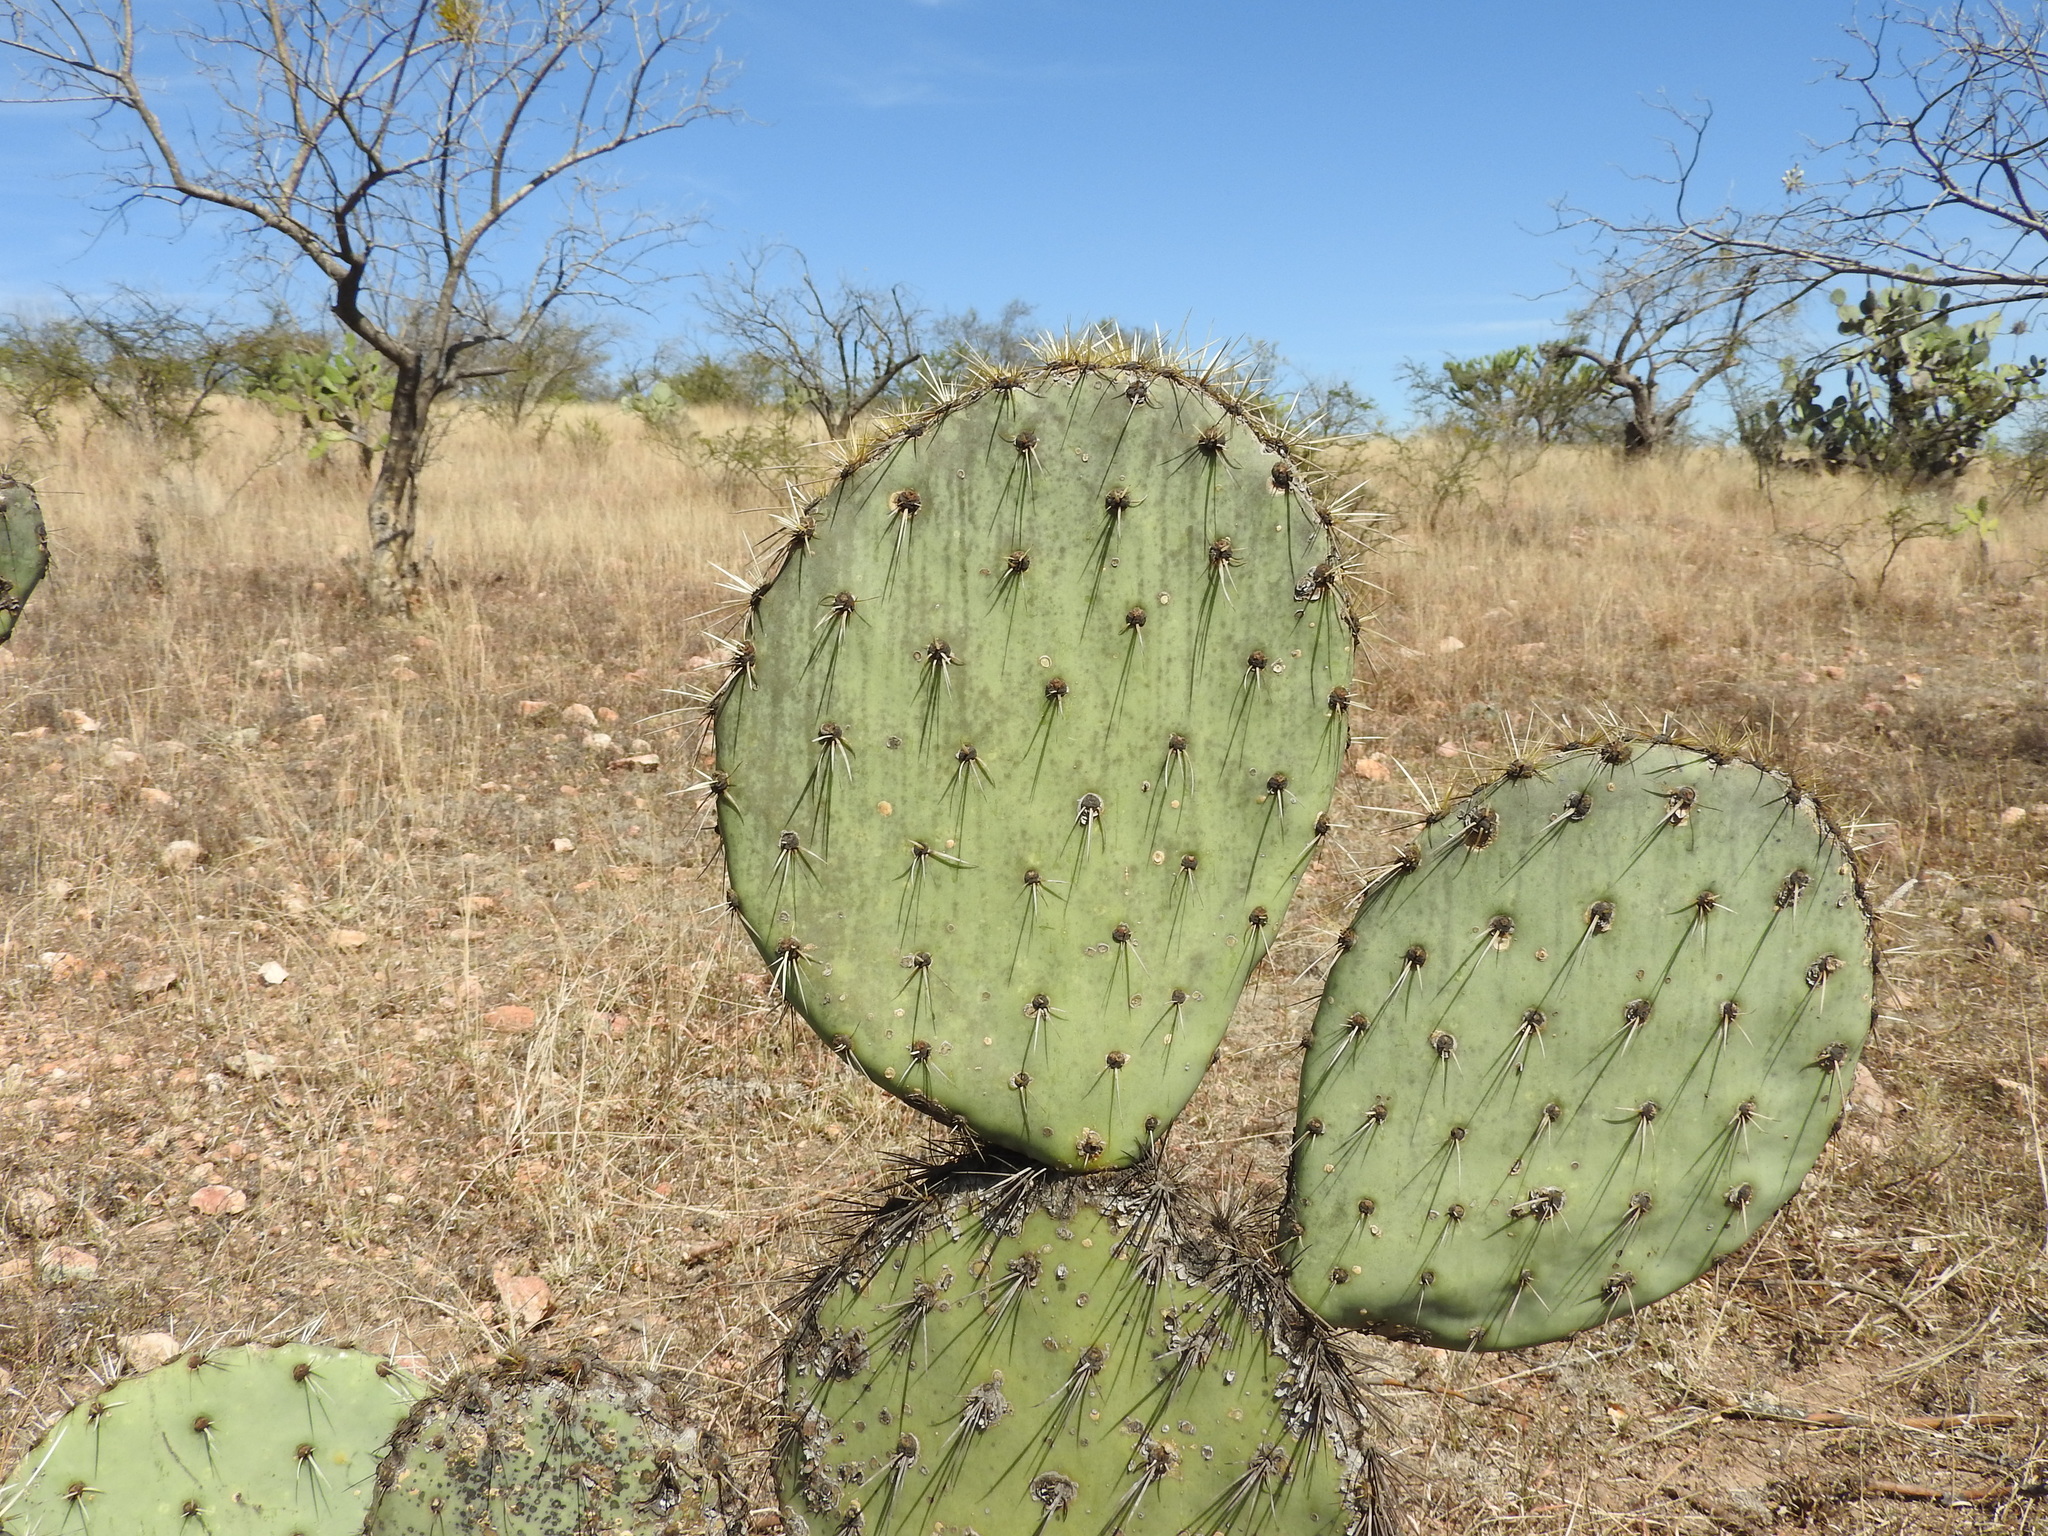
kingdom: Plantae
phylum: Tracheophyta
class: Magnoliopsida
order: Caryophyllales
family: Cactaceae
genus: Opuntia
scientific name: Opuntia engelmannii
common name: Cactus-apple
